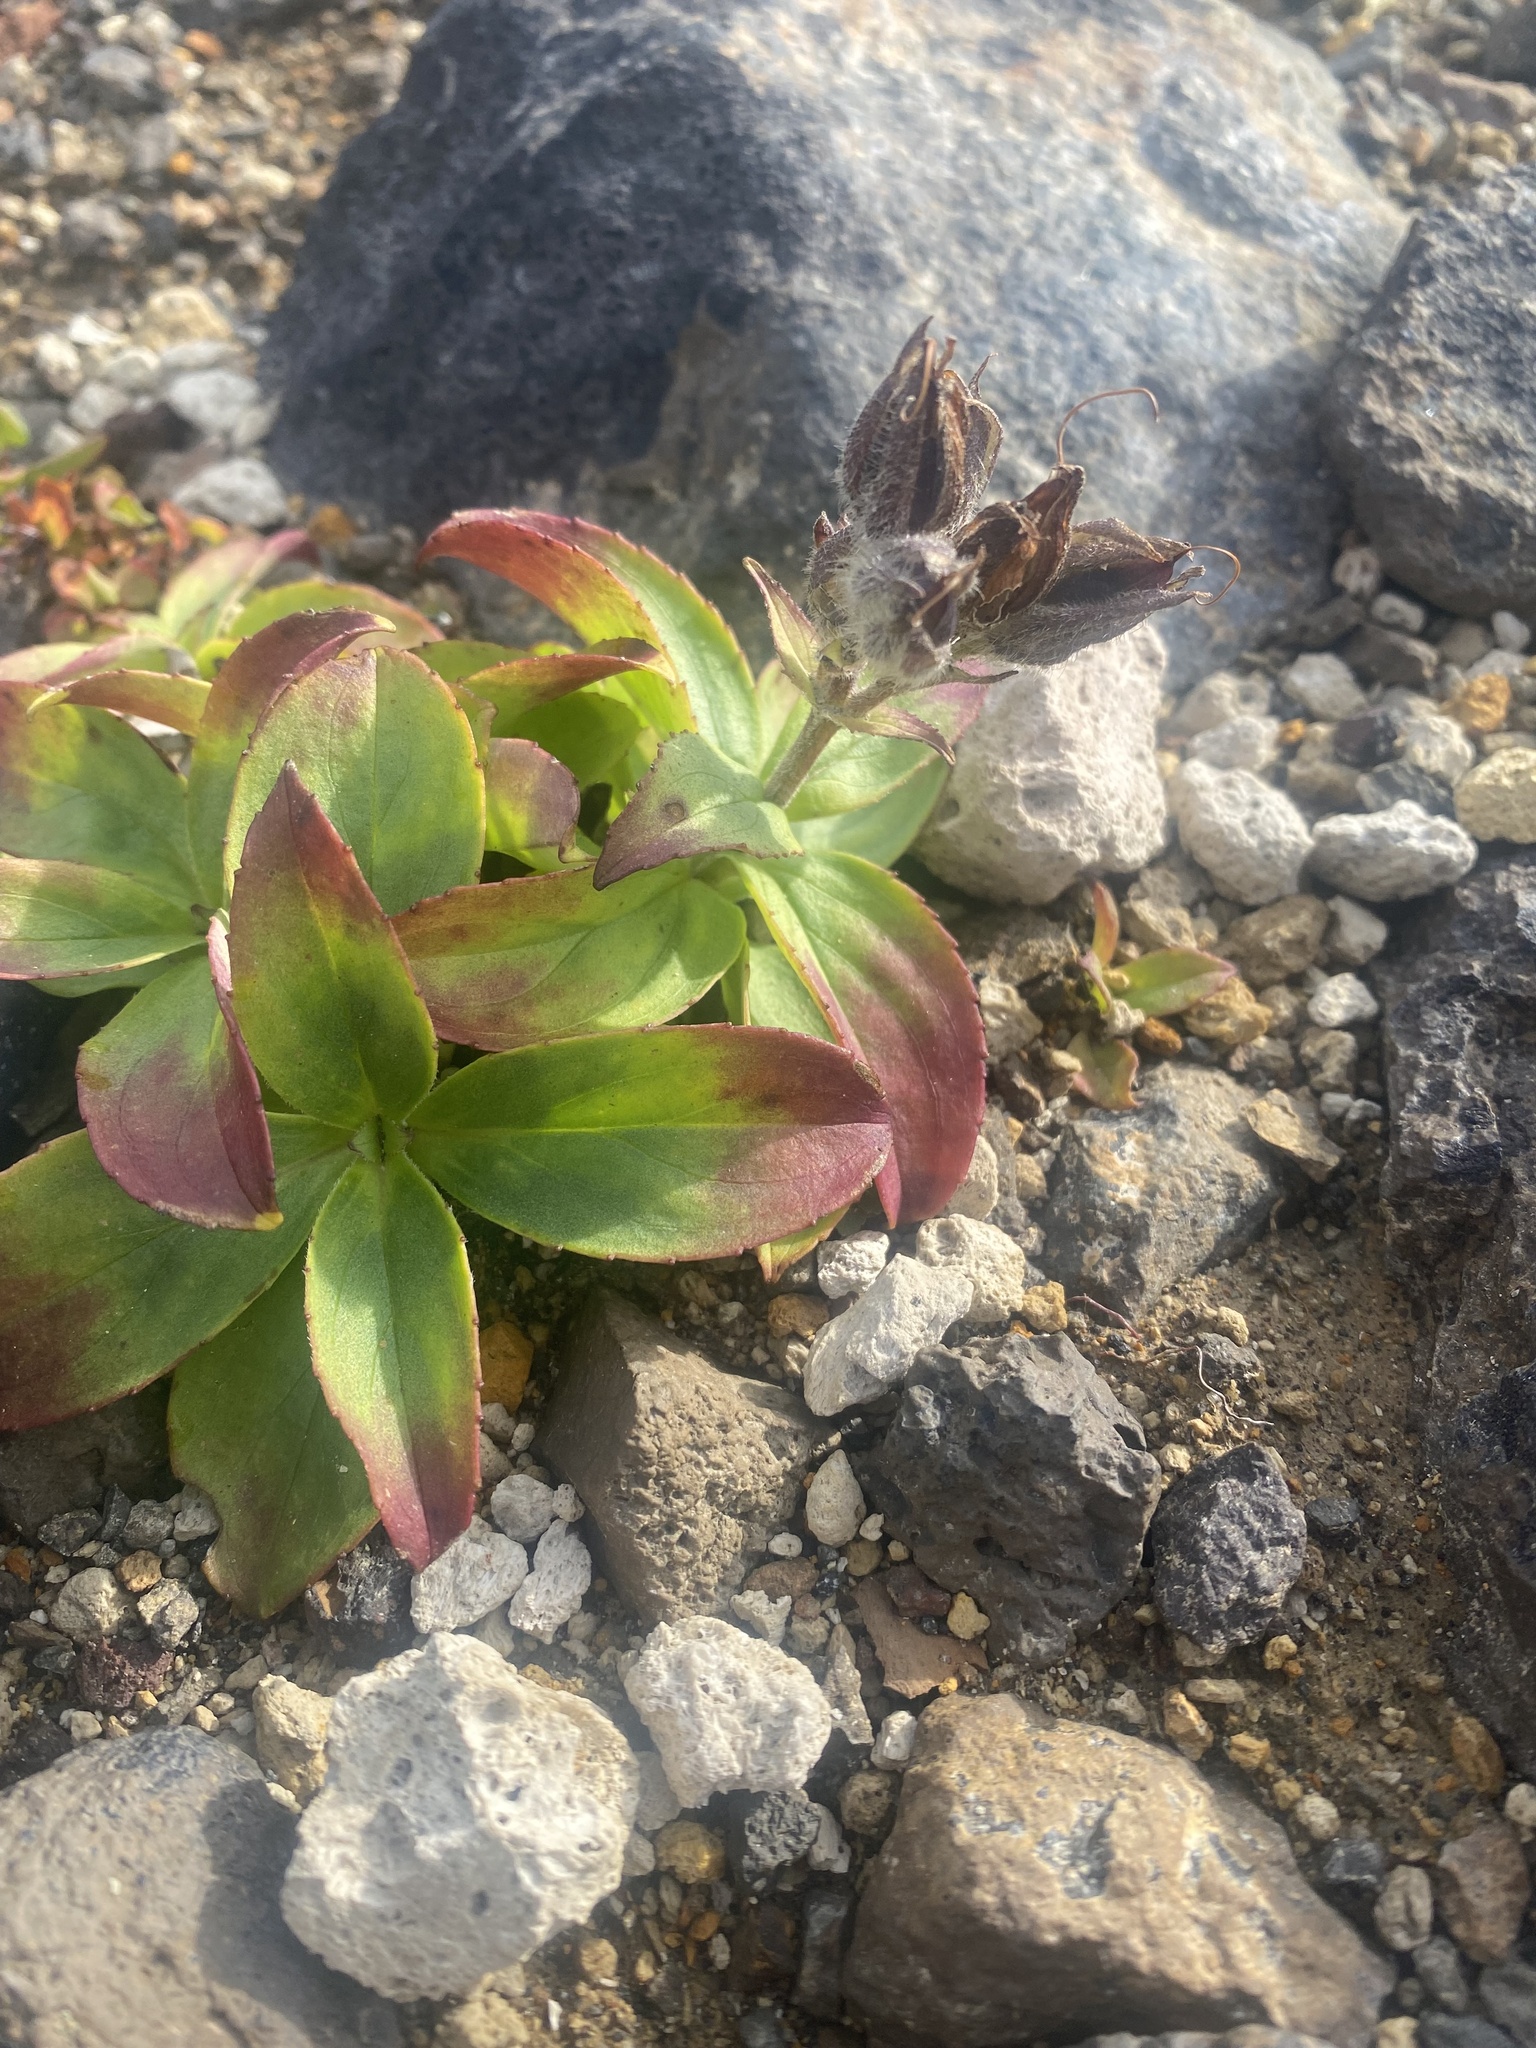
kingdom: Plantae
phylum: Tracheophyta
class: Magnoliopsida
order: Lamiales
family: Plantaginaceae
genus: Pennellianthus
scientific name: Pennellianthus frutescens
